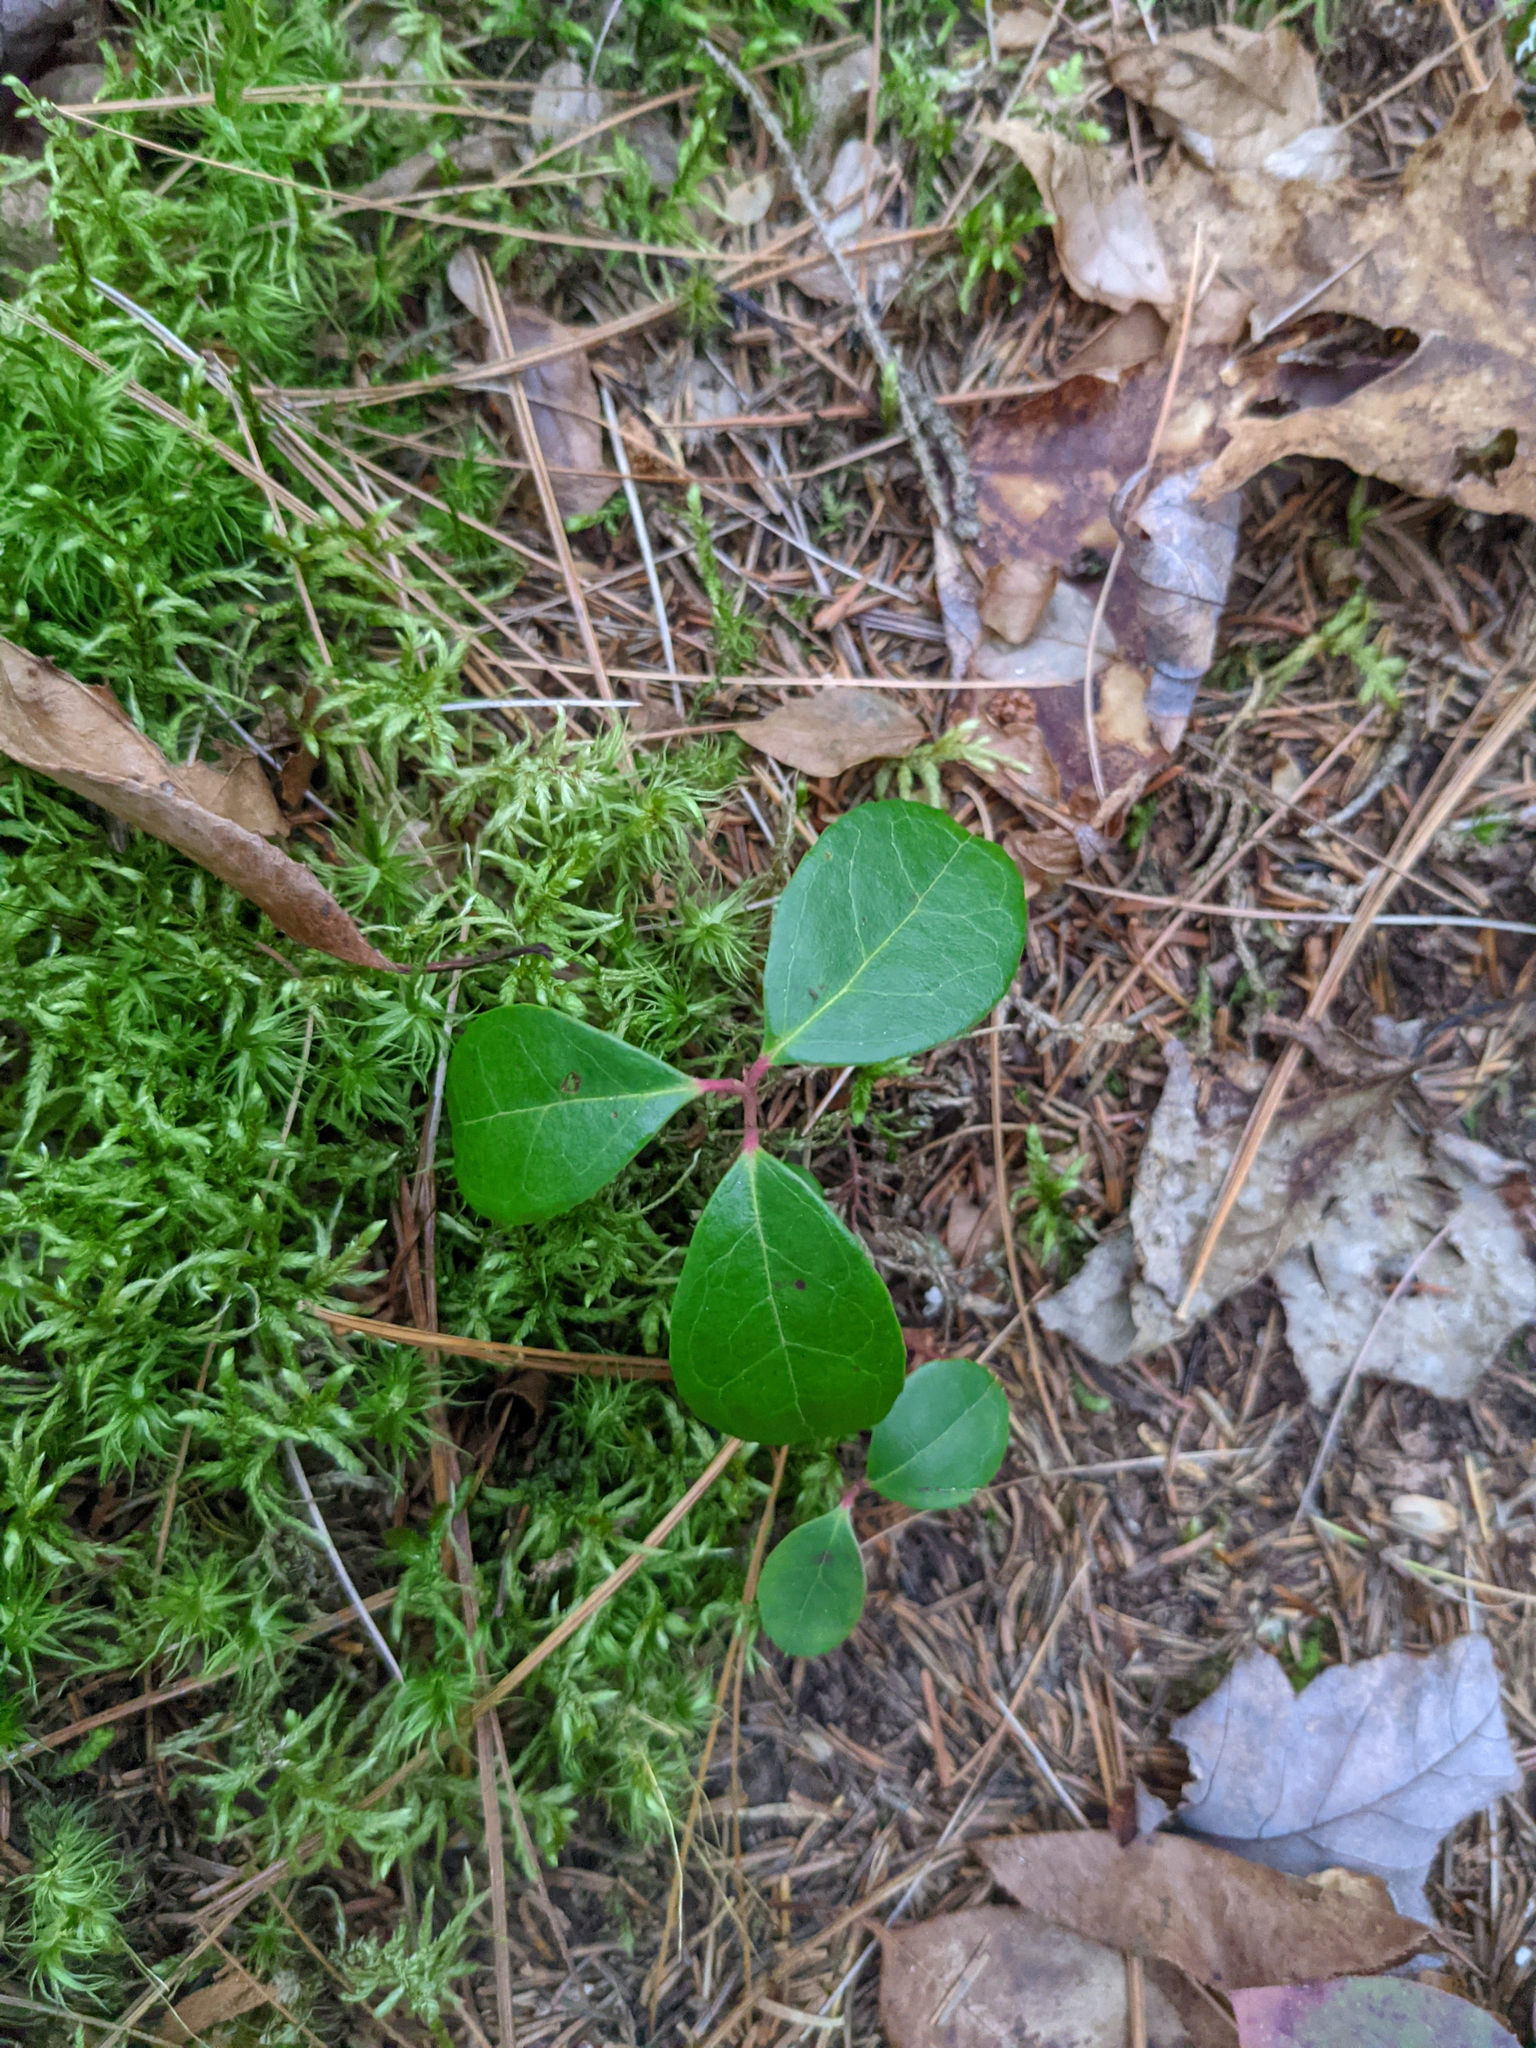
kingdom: Plantae
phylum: Tracheophyta
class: Magnoliopsida
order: Ericales
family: Ericaceae
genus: Gaultheria
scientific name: Gaultheria procumbens
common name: Checkerberry
